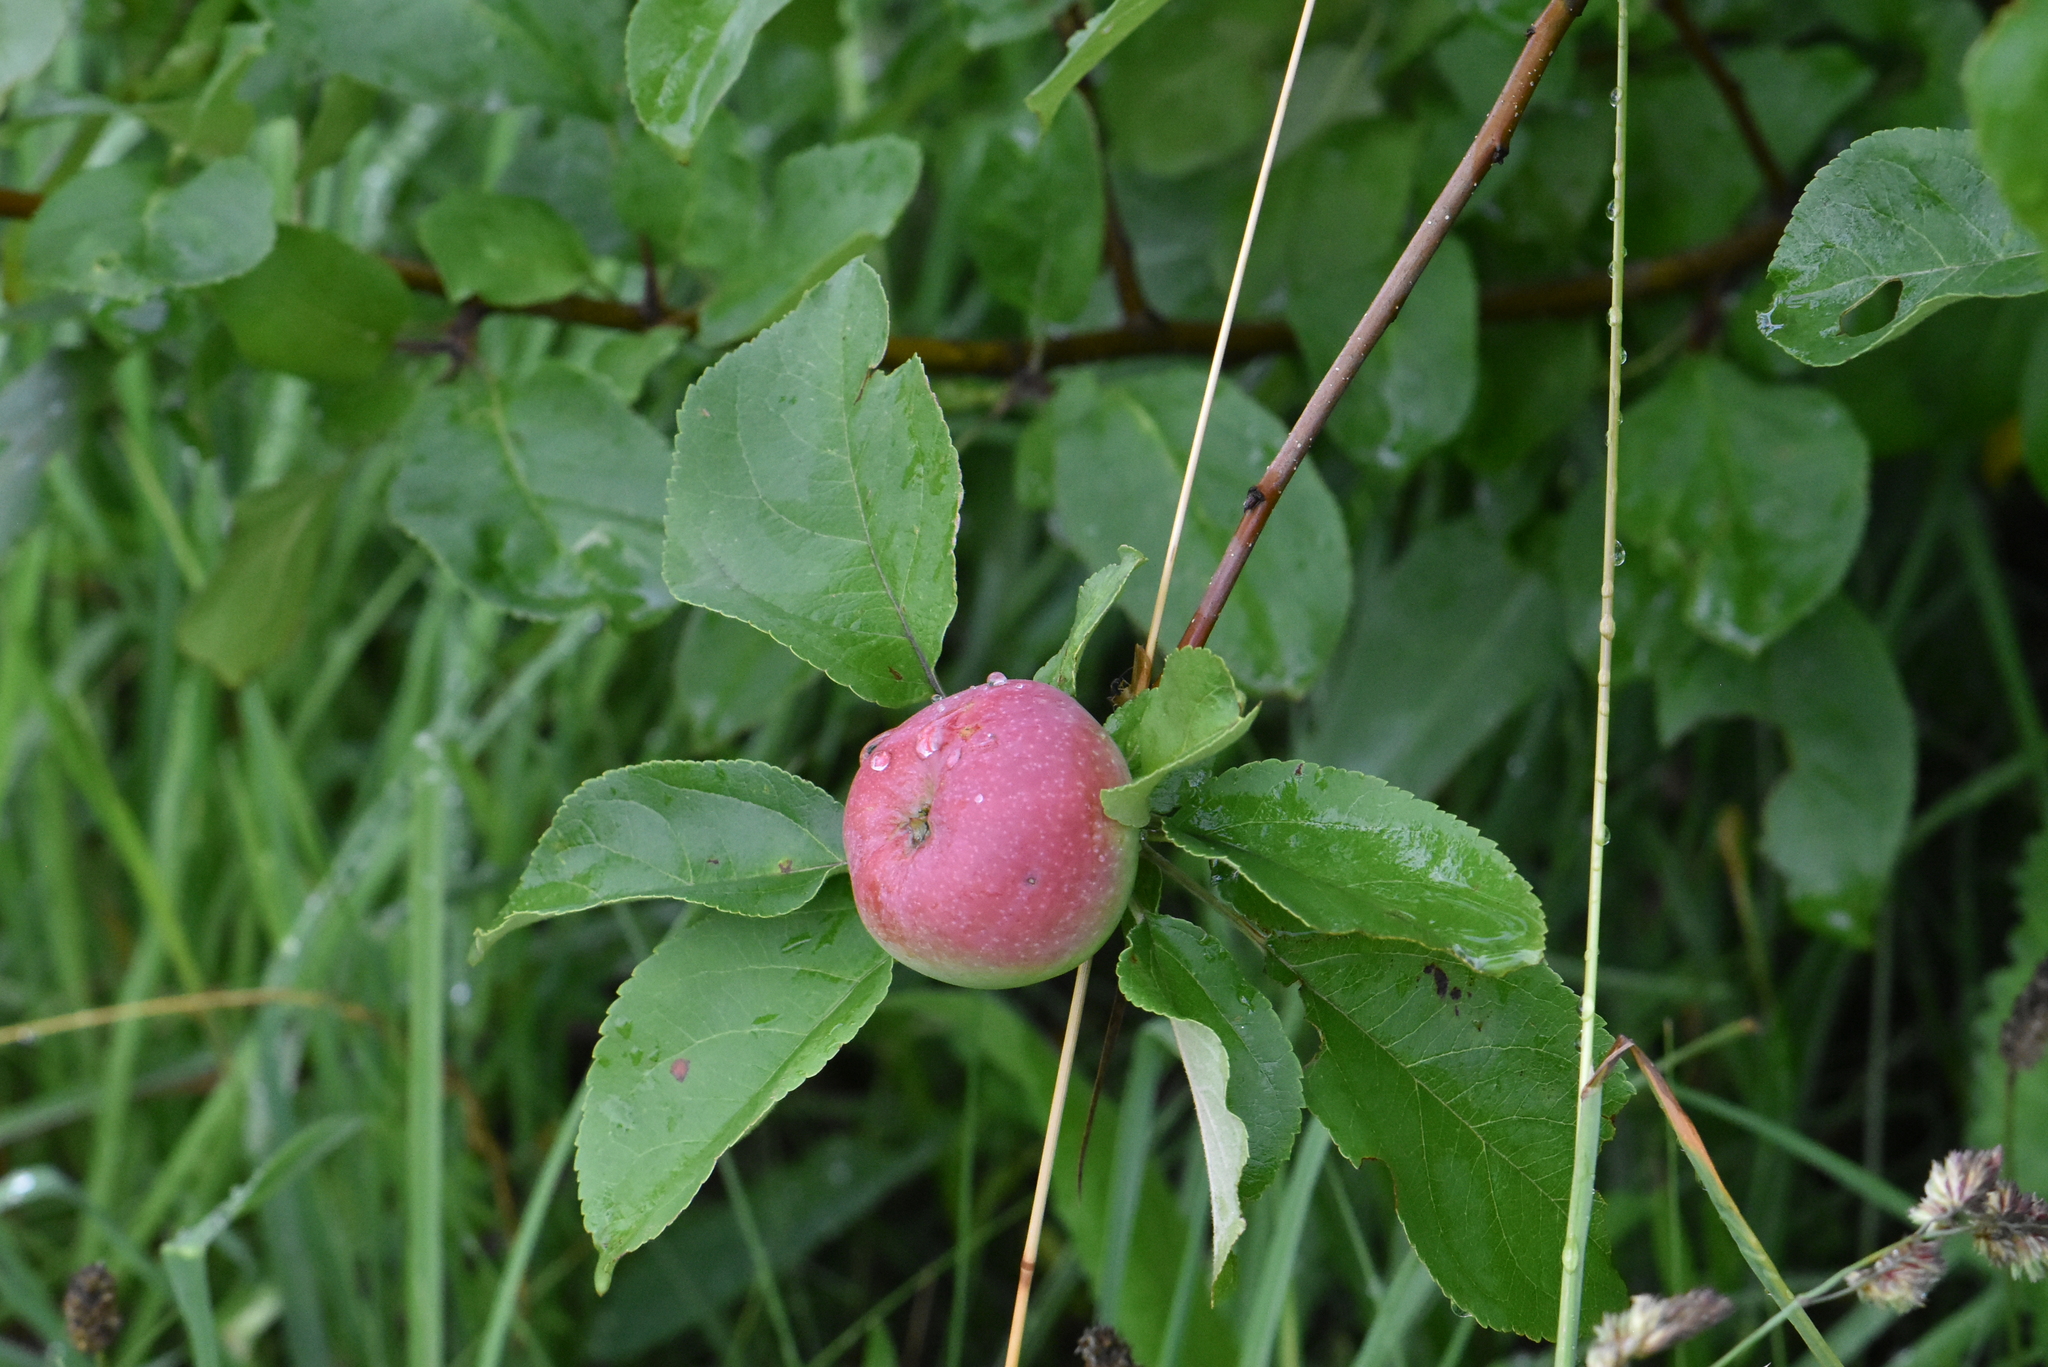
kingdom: Plantae
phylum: Tracheophyta
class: Magnoliopsida
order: Rosales
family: Rosaceae
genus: Malus
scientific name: Malus sylvestris
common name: Crab apple
